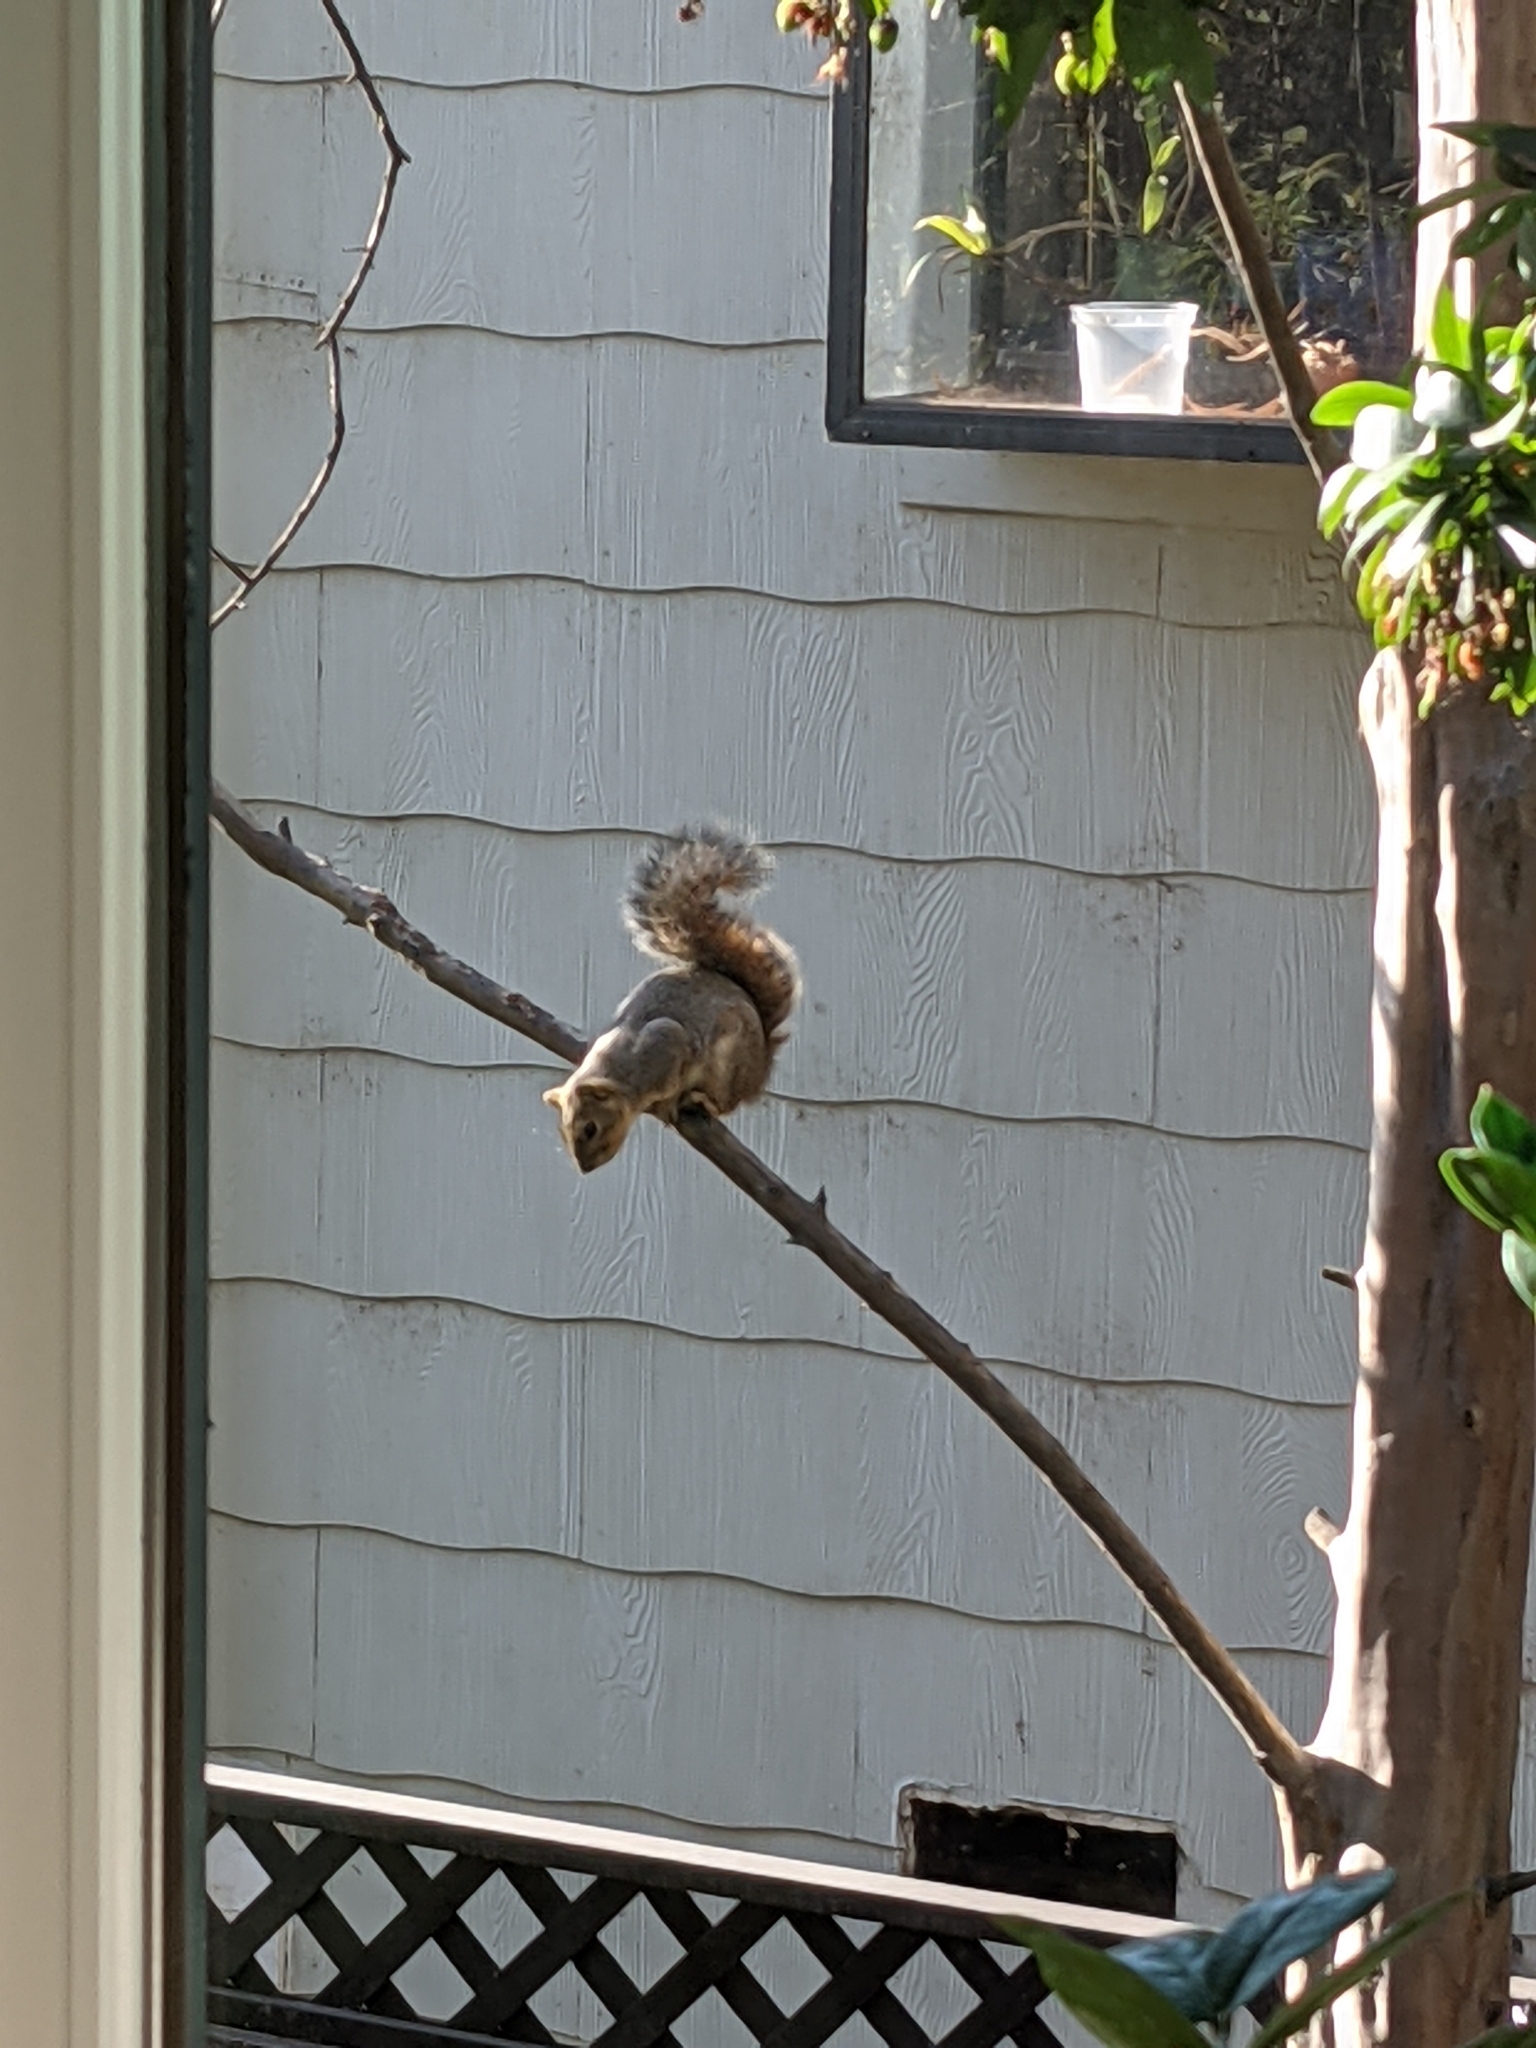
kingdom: Animalia
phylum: Chordata
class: Mammalia
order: Rodentia
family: Sciuridae
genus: Sciurus
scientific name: Sciurus niger
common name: Fox squirrel
